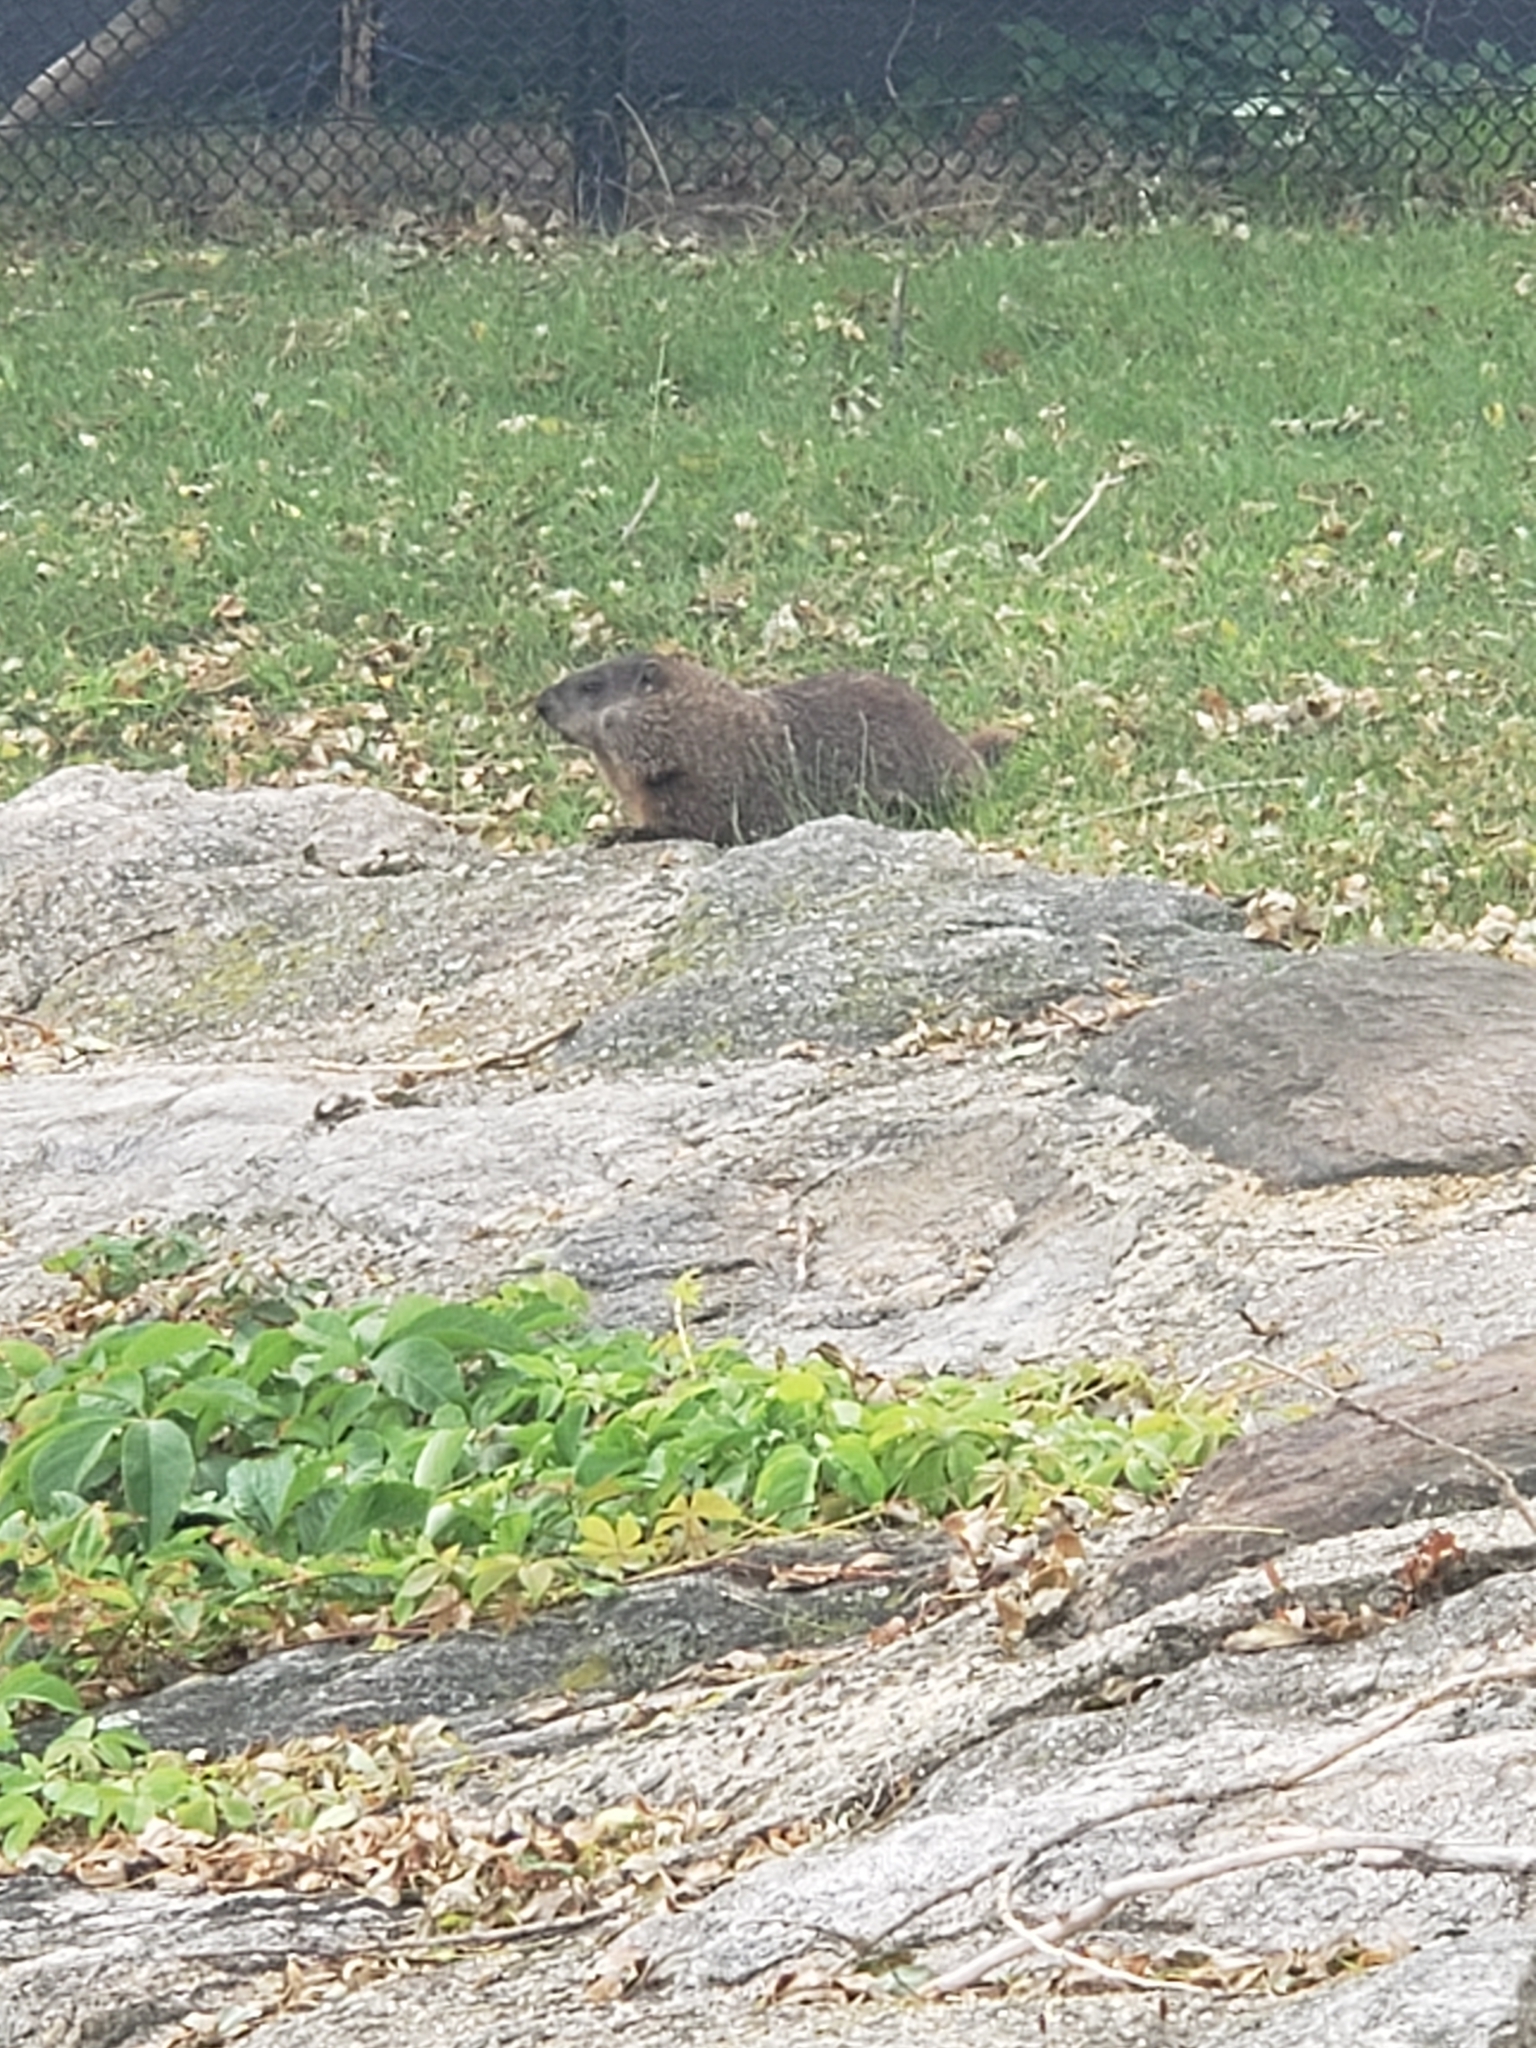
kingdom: Animalia
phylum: Chordata
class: Mammalia
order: Rodentia
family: Sciuridae
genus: Marmota
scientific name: Marmota monax
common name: Groundhog
